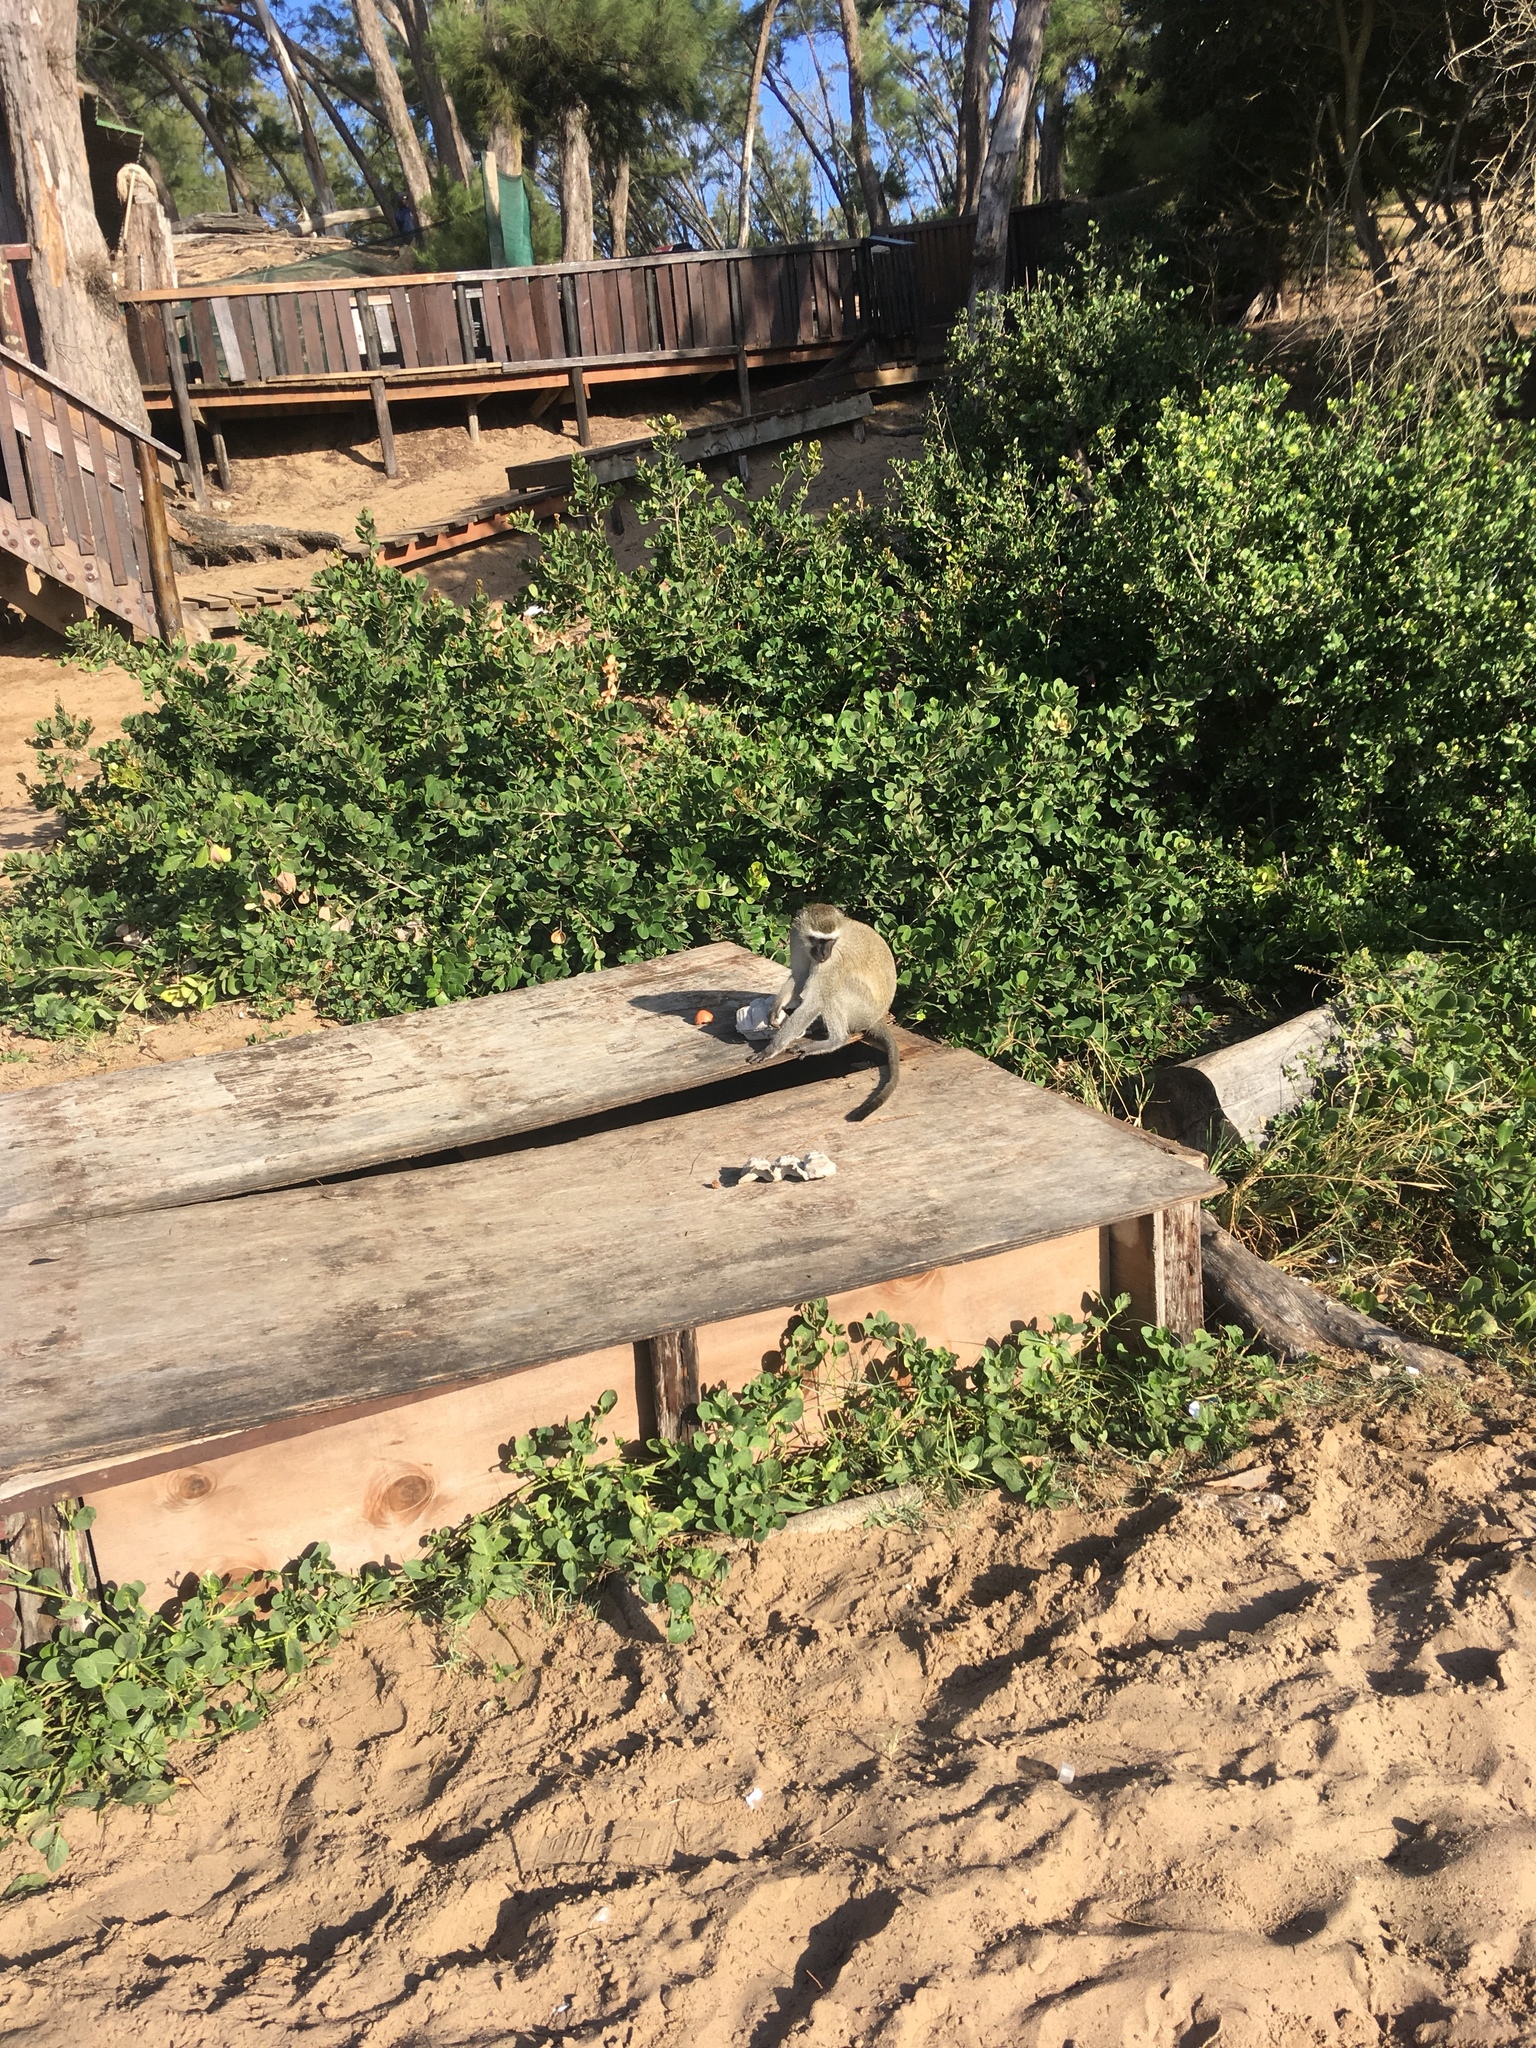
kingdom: Animalia
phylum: Chordata
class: Mammalia
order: Primates
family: Cercopithecidae
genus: Chlorocebus
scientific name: Chlorocebus pygerythrus
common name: Vervet monkey
